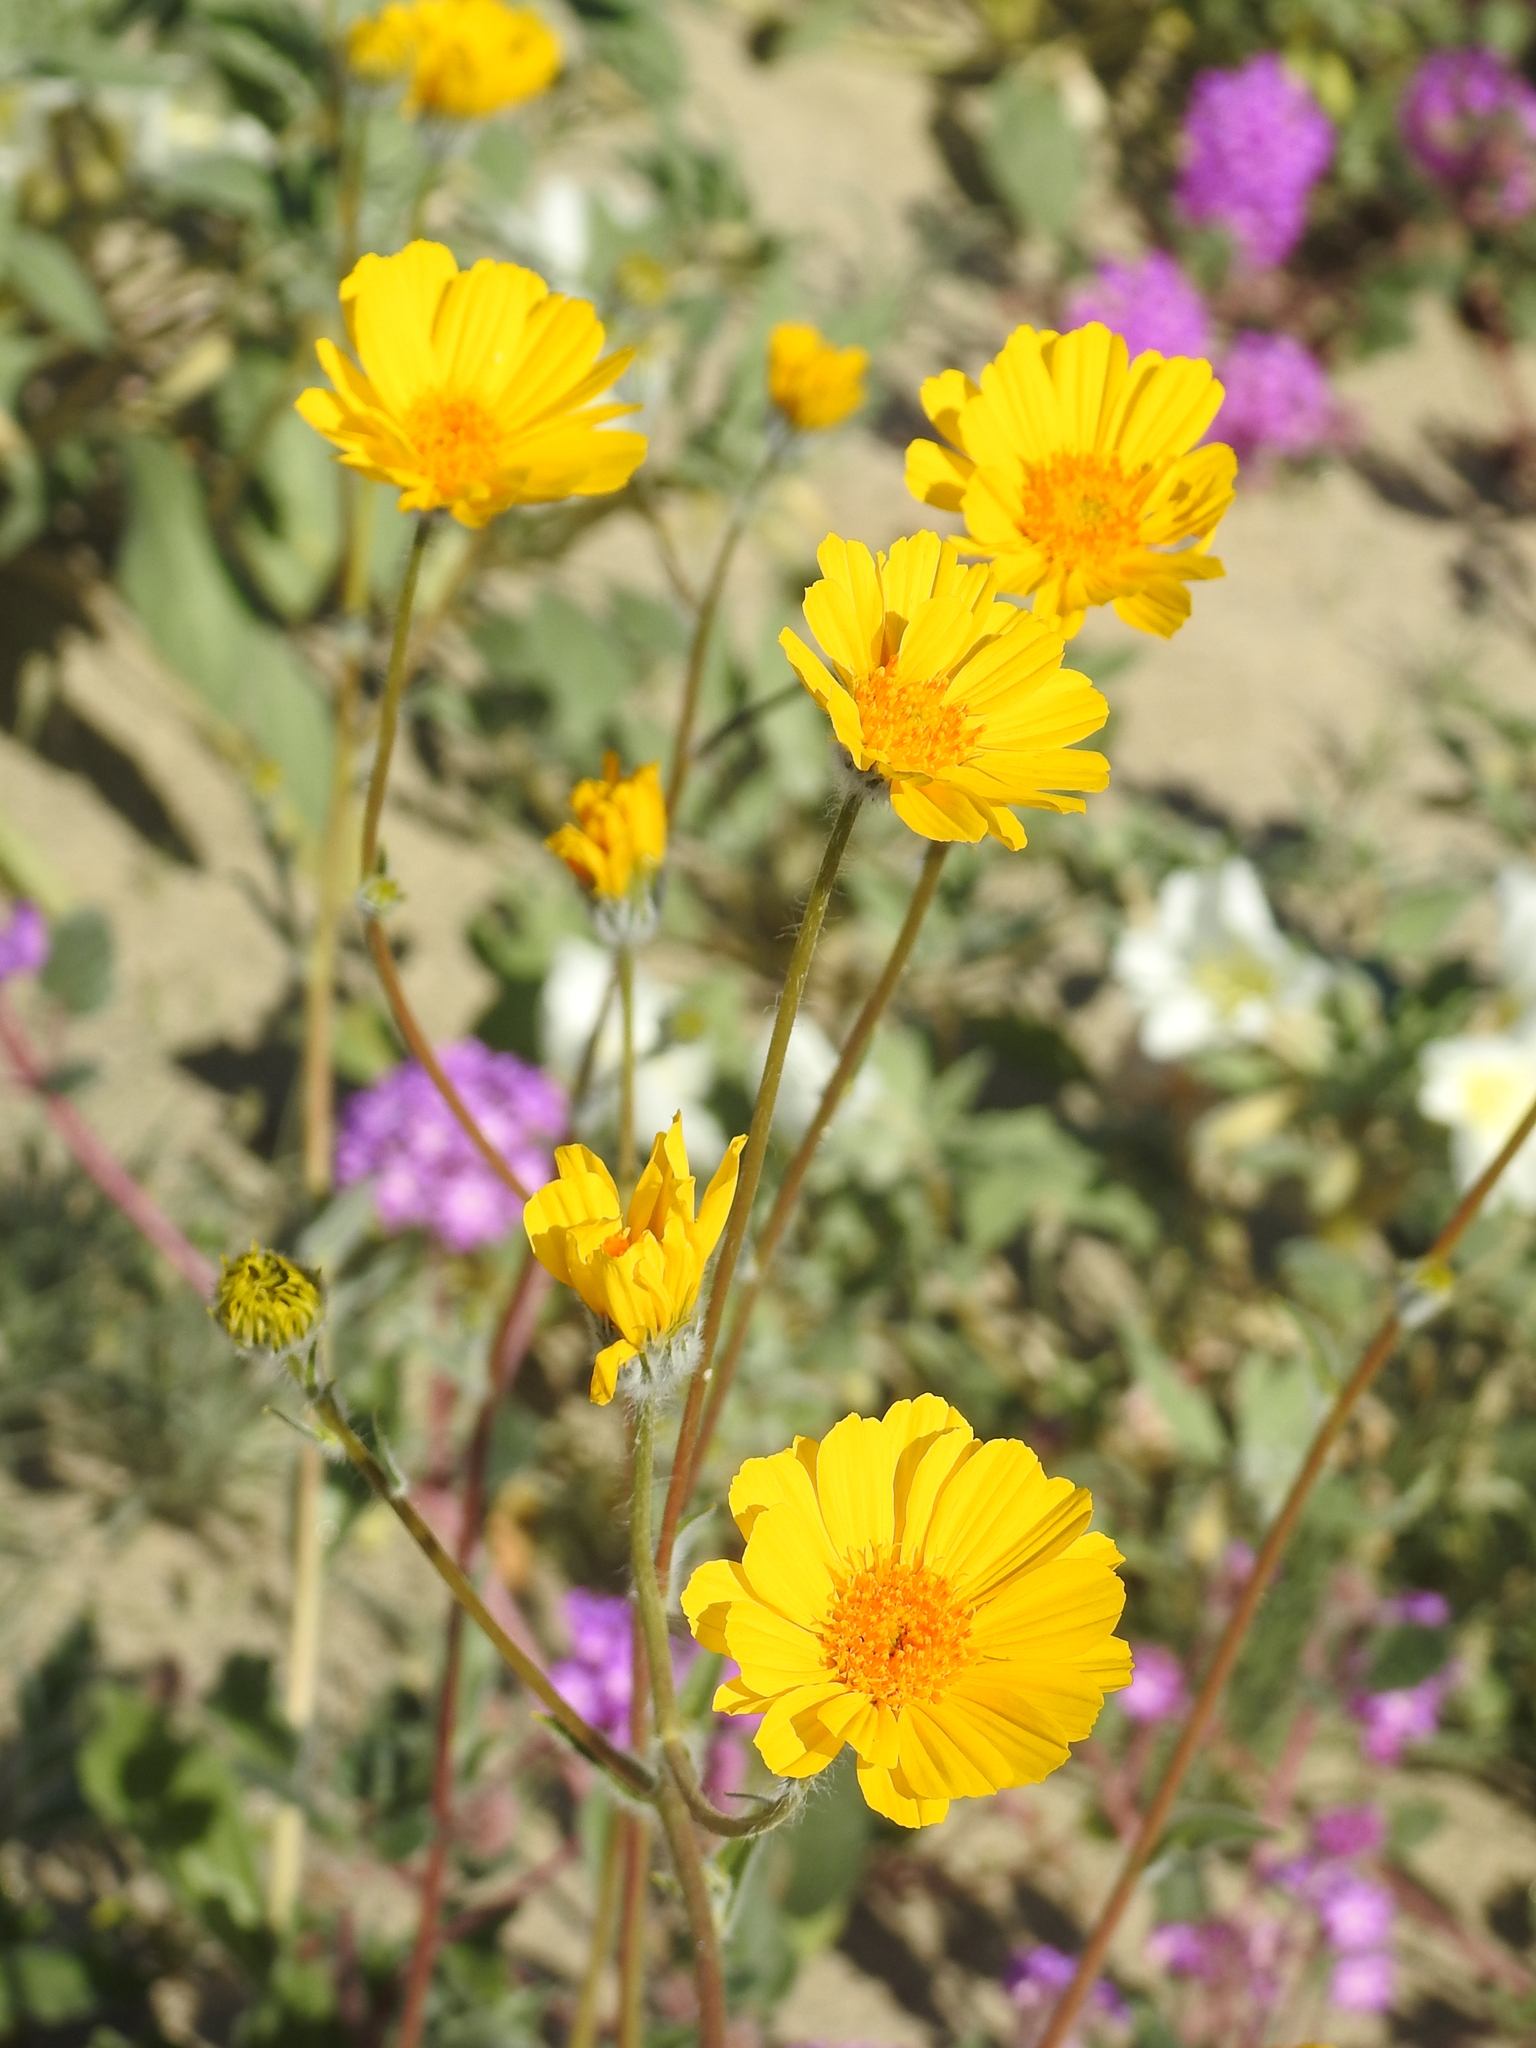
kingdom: Plantae
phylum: Tracheophyta
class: Magnoliopsida
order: Asterales
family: Asteraceae
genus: Geraea
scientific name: Geraea canescens
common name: Desert-gold
